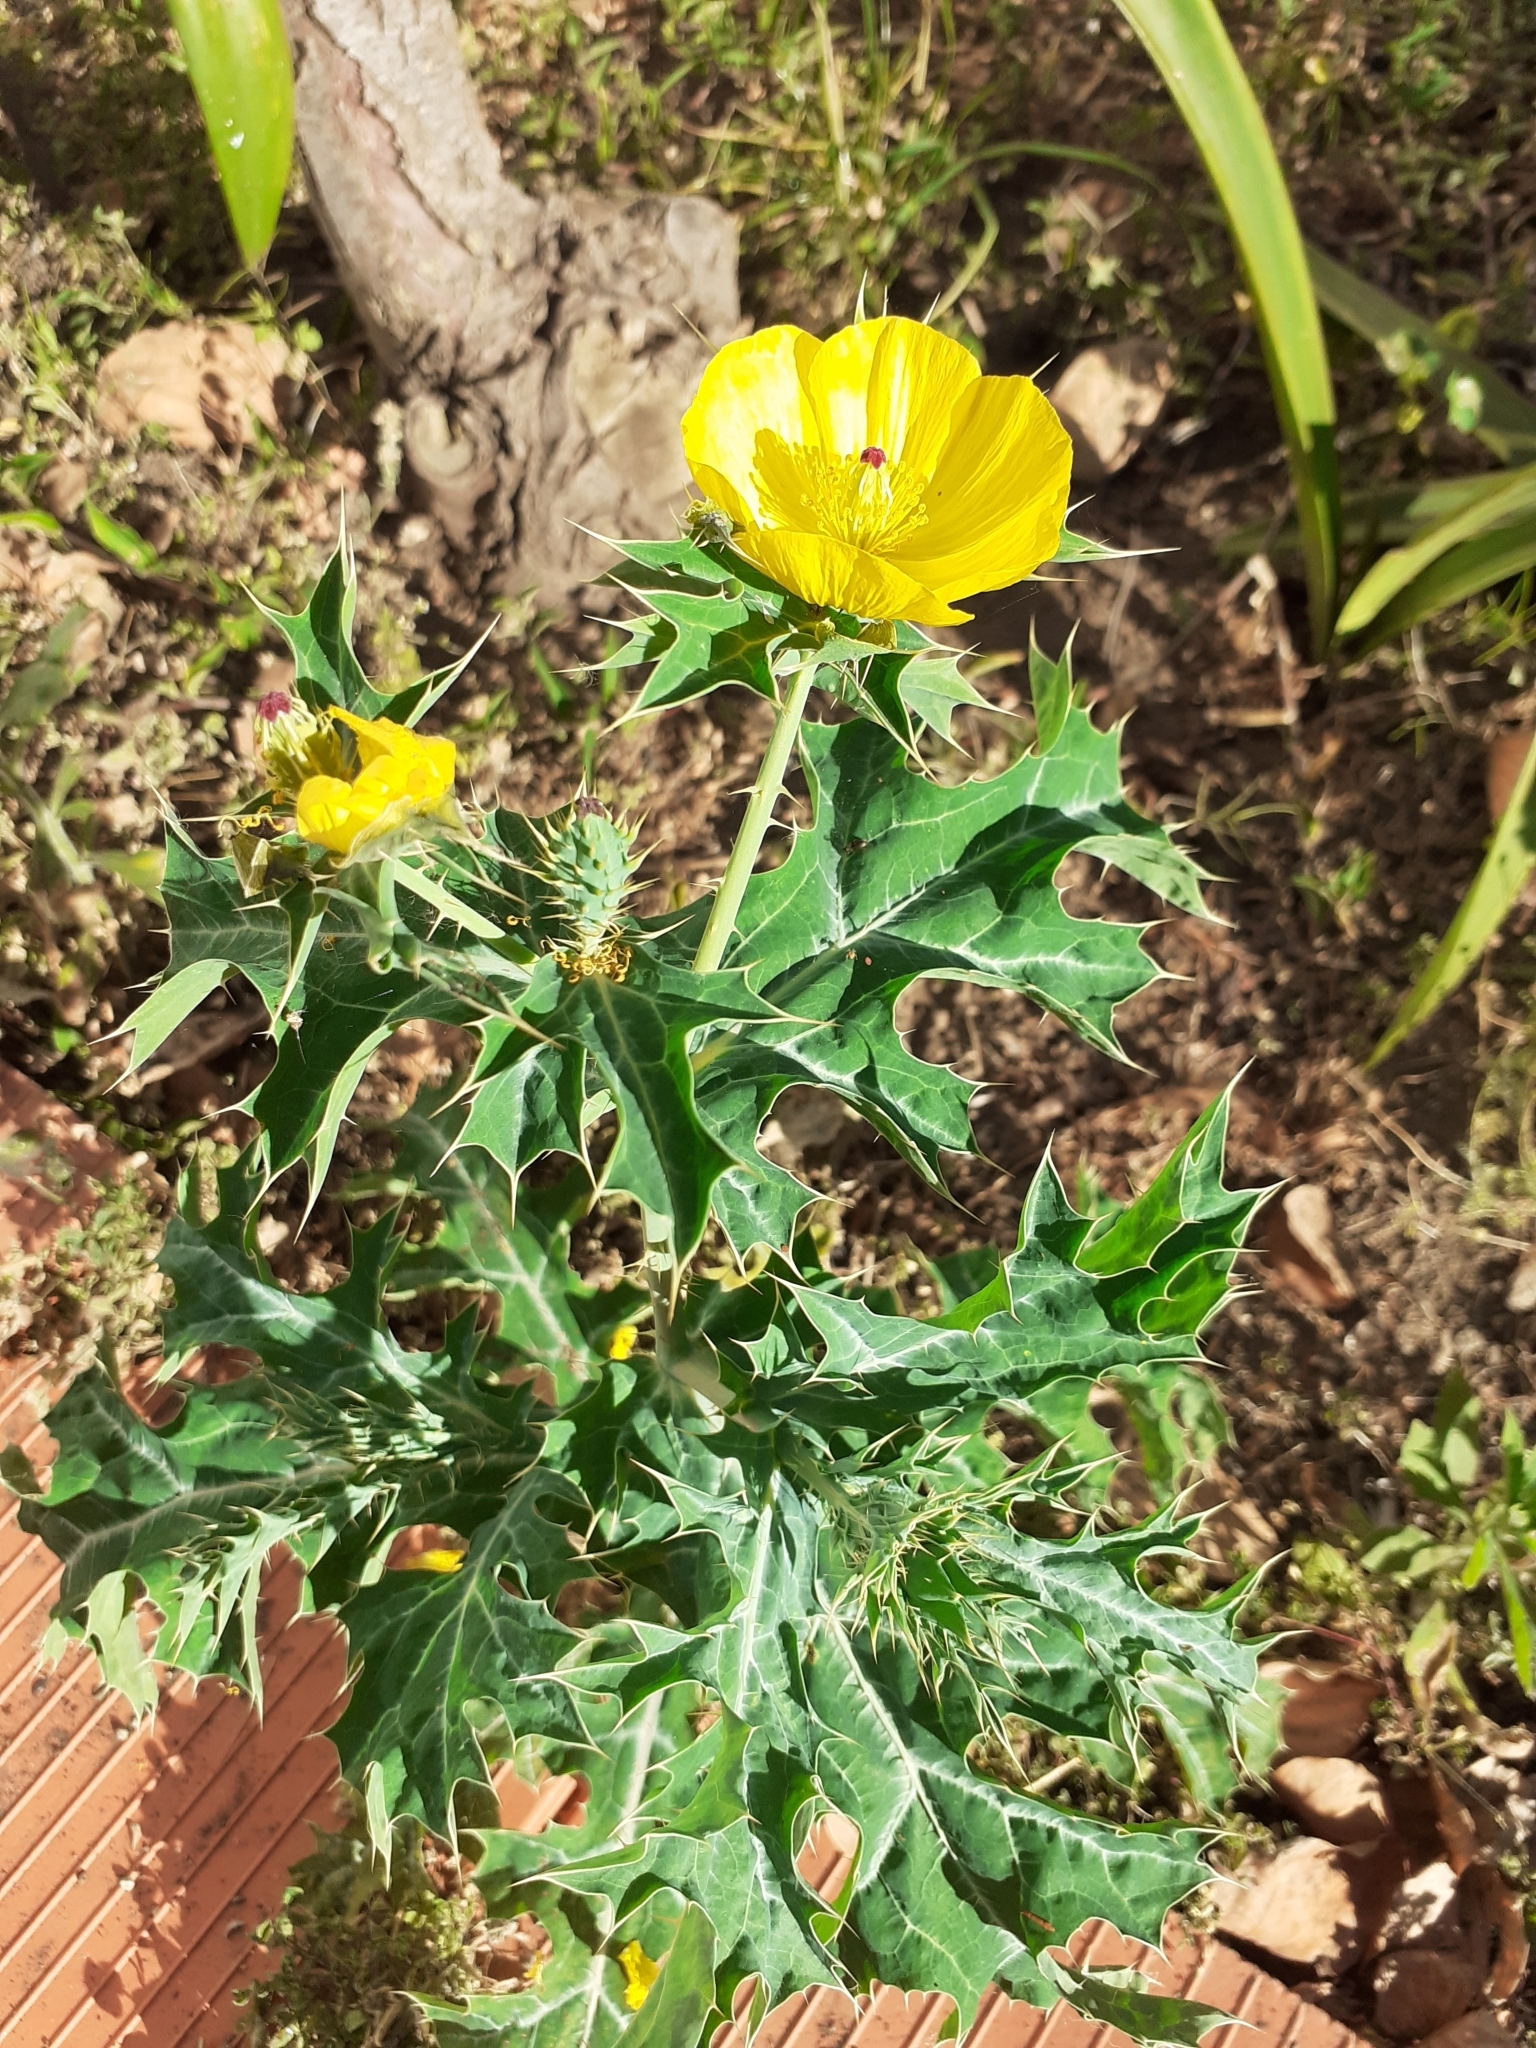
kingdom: Plantae
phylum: Tracheophyta
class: Magnoliopsida
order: Ranunculales
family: Papaveraceae
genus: Argemone
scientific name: Argemone mexicana
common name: Mexican poppy
